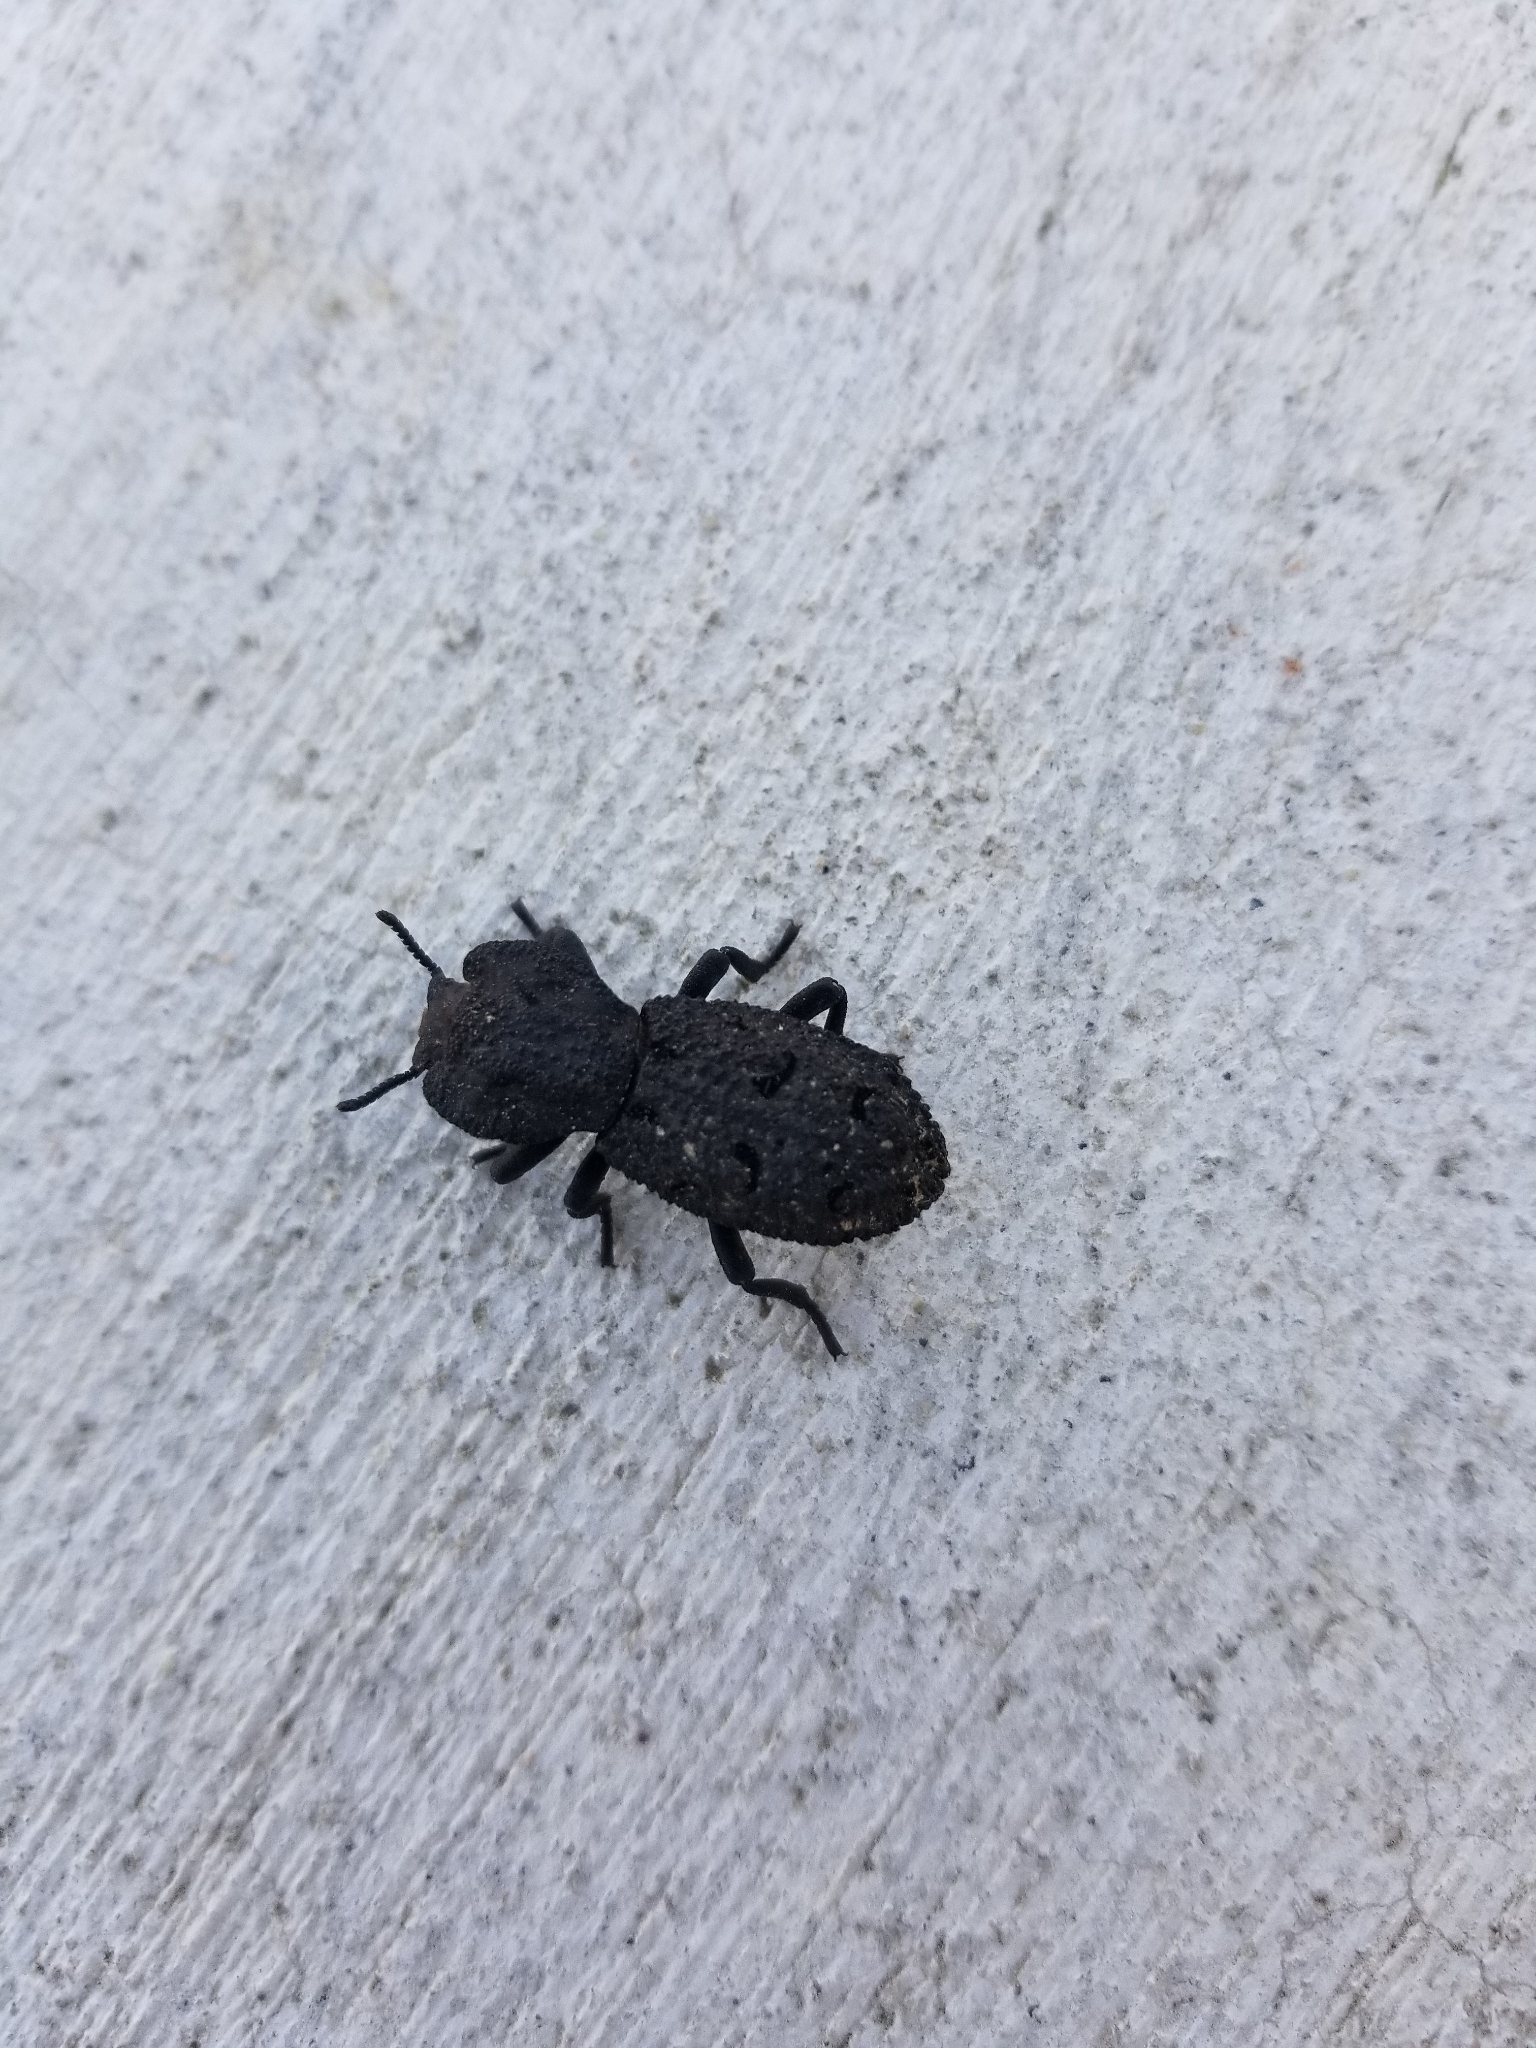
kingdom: Animalia
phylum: Arthropoda
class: Insecta
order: Coleoptera
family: Zopheridae
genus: Phloeodes
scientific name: Phloeodes diabolicus
